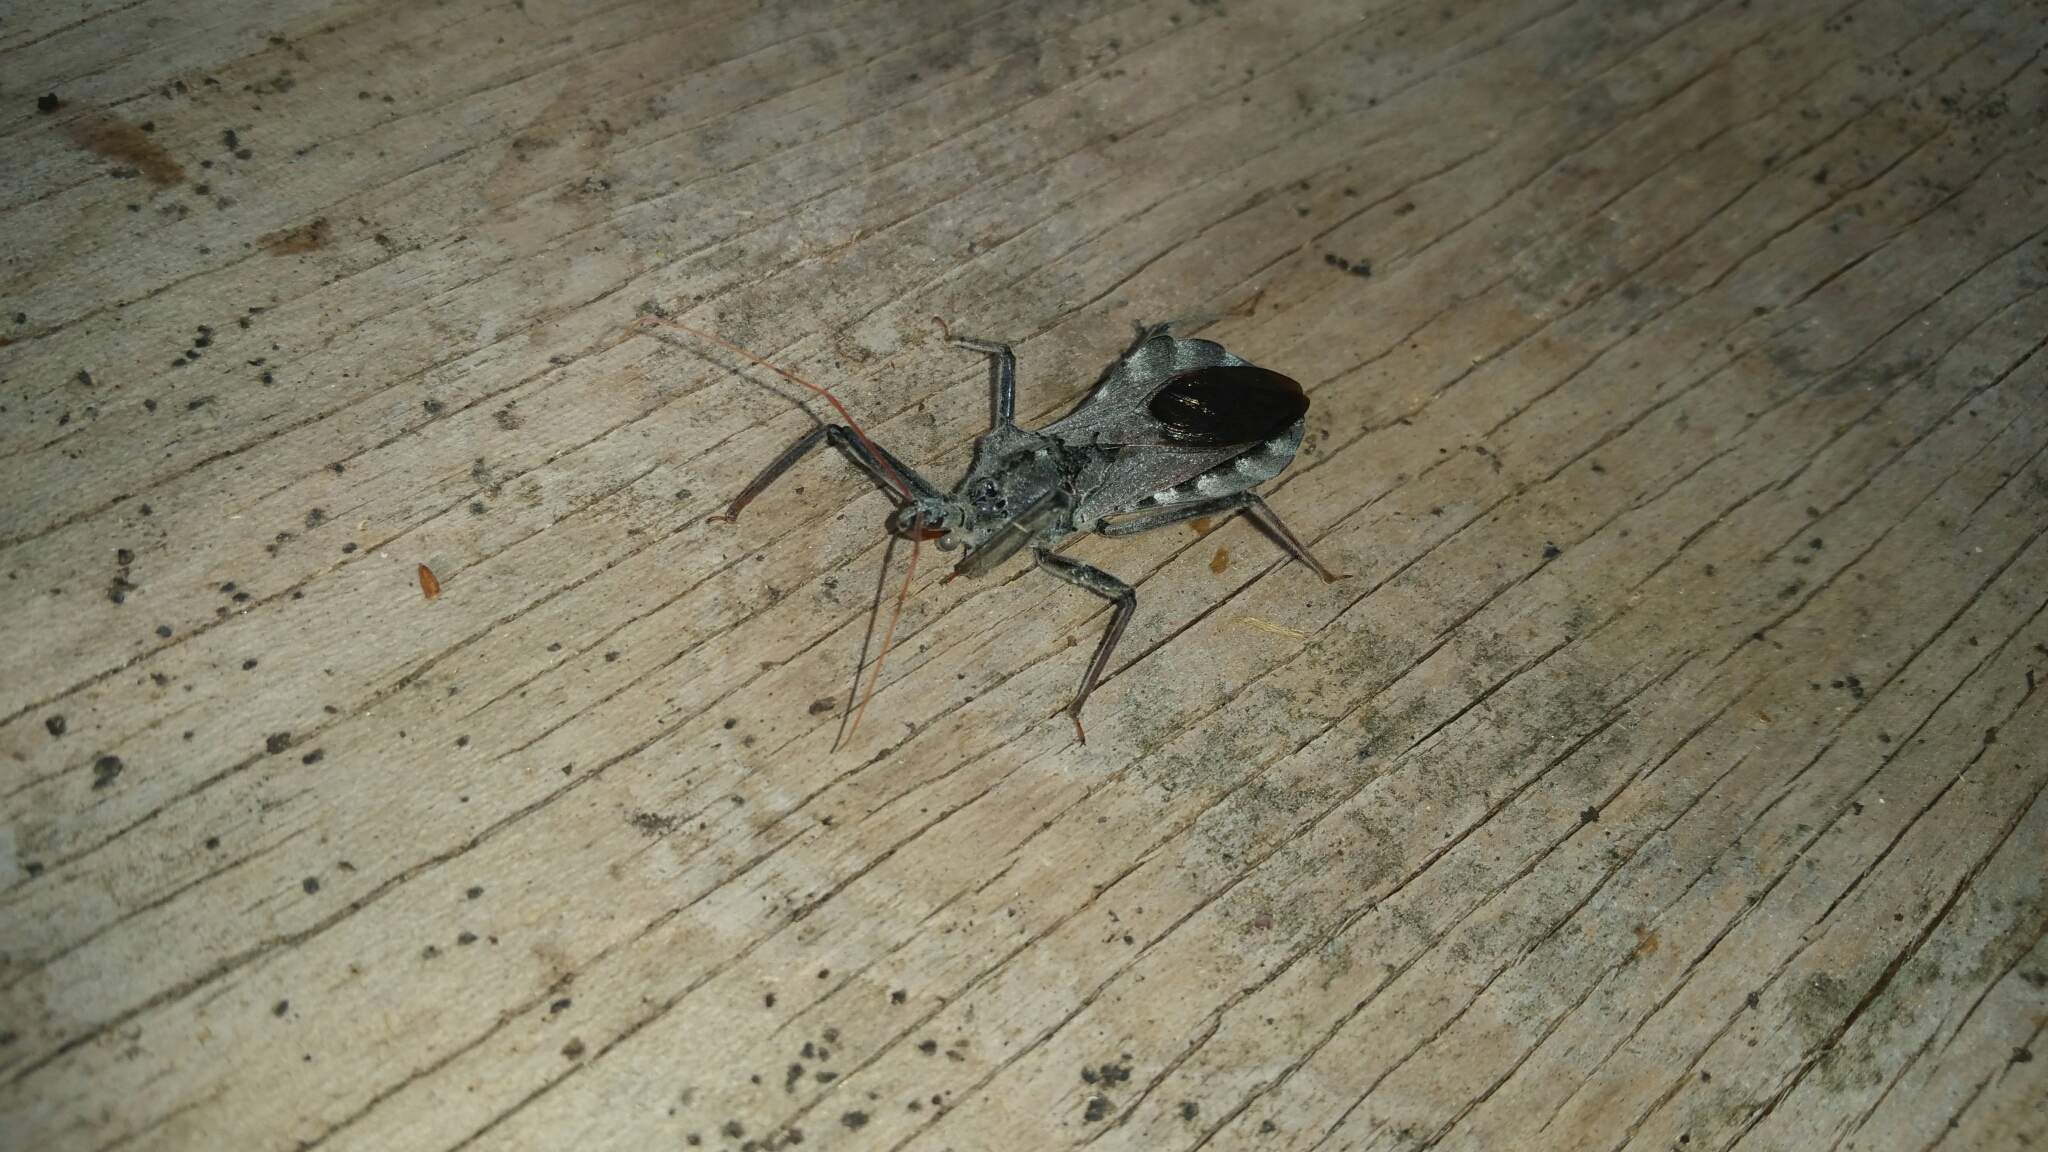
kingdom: Animalia
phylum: Arthropoda
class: Insecta
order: Hemiptera
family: Reduviidae
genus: Arilus
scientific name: Arilus cristatus
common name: North american wheel bug
